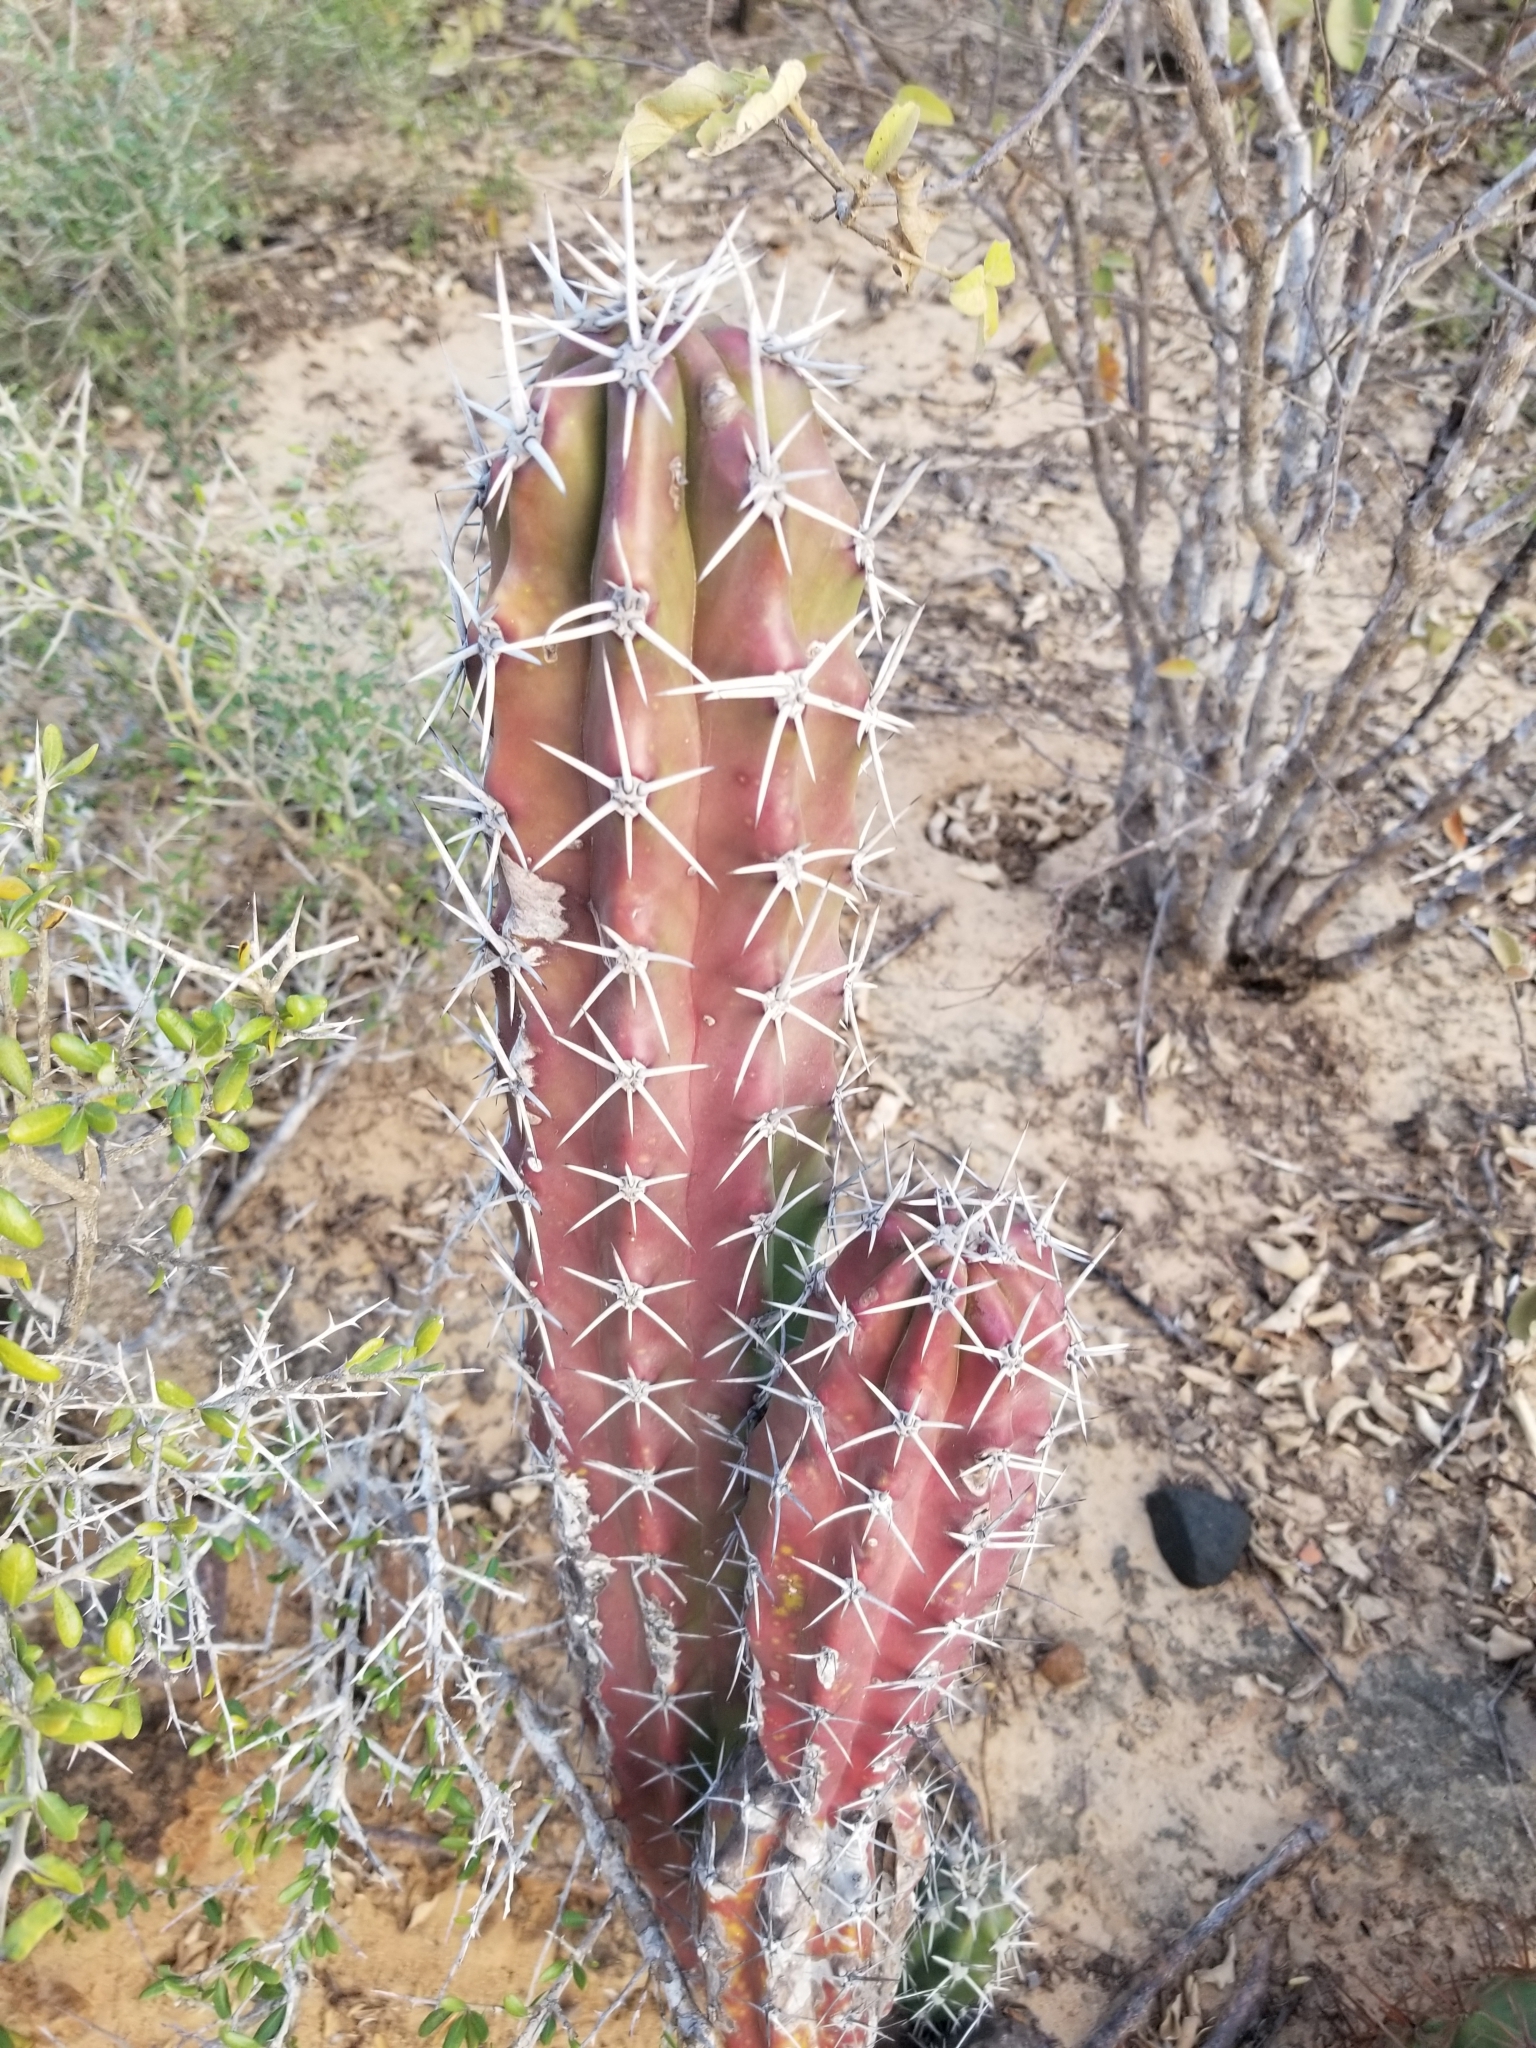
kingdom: Plantae
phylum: Tracheophyta
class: Magnoliopsida
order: Caryophyllales
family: Cactaceae
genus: Stenocereus
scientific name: Stenocereus griseus
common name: Tall candelabra cactus
